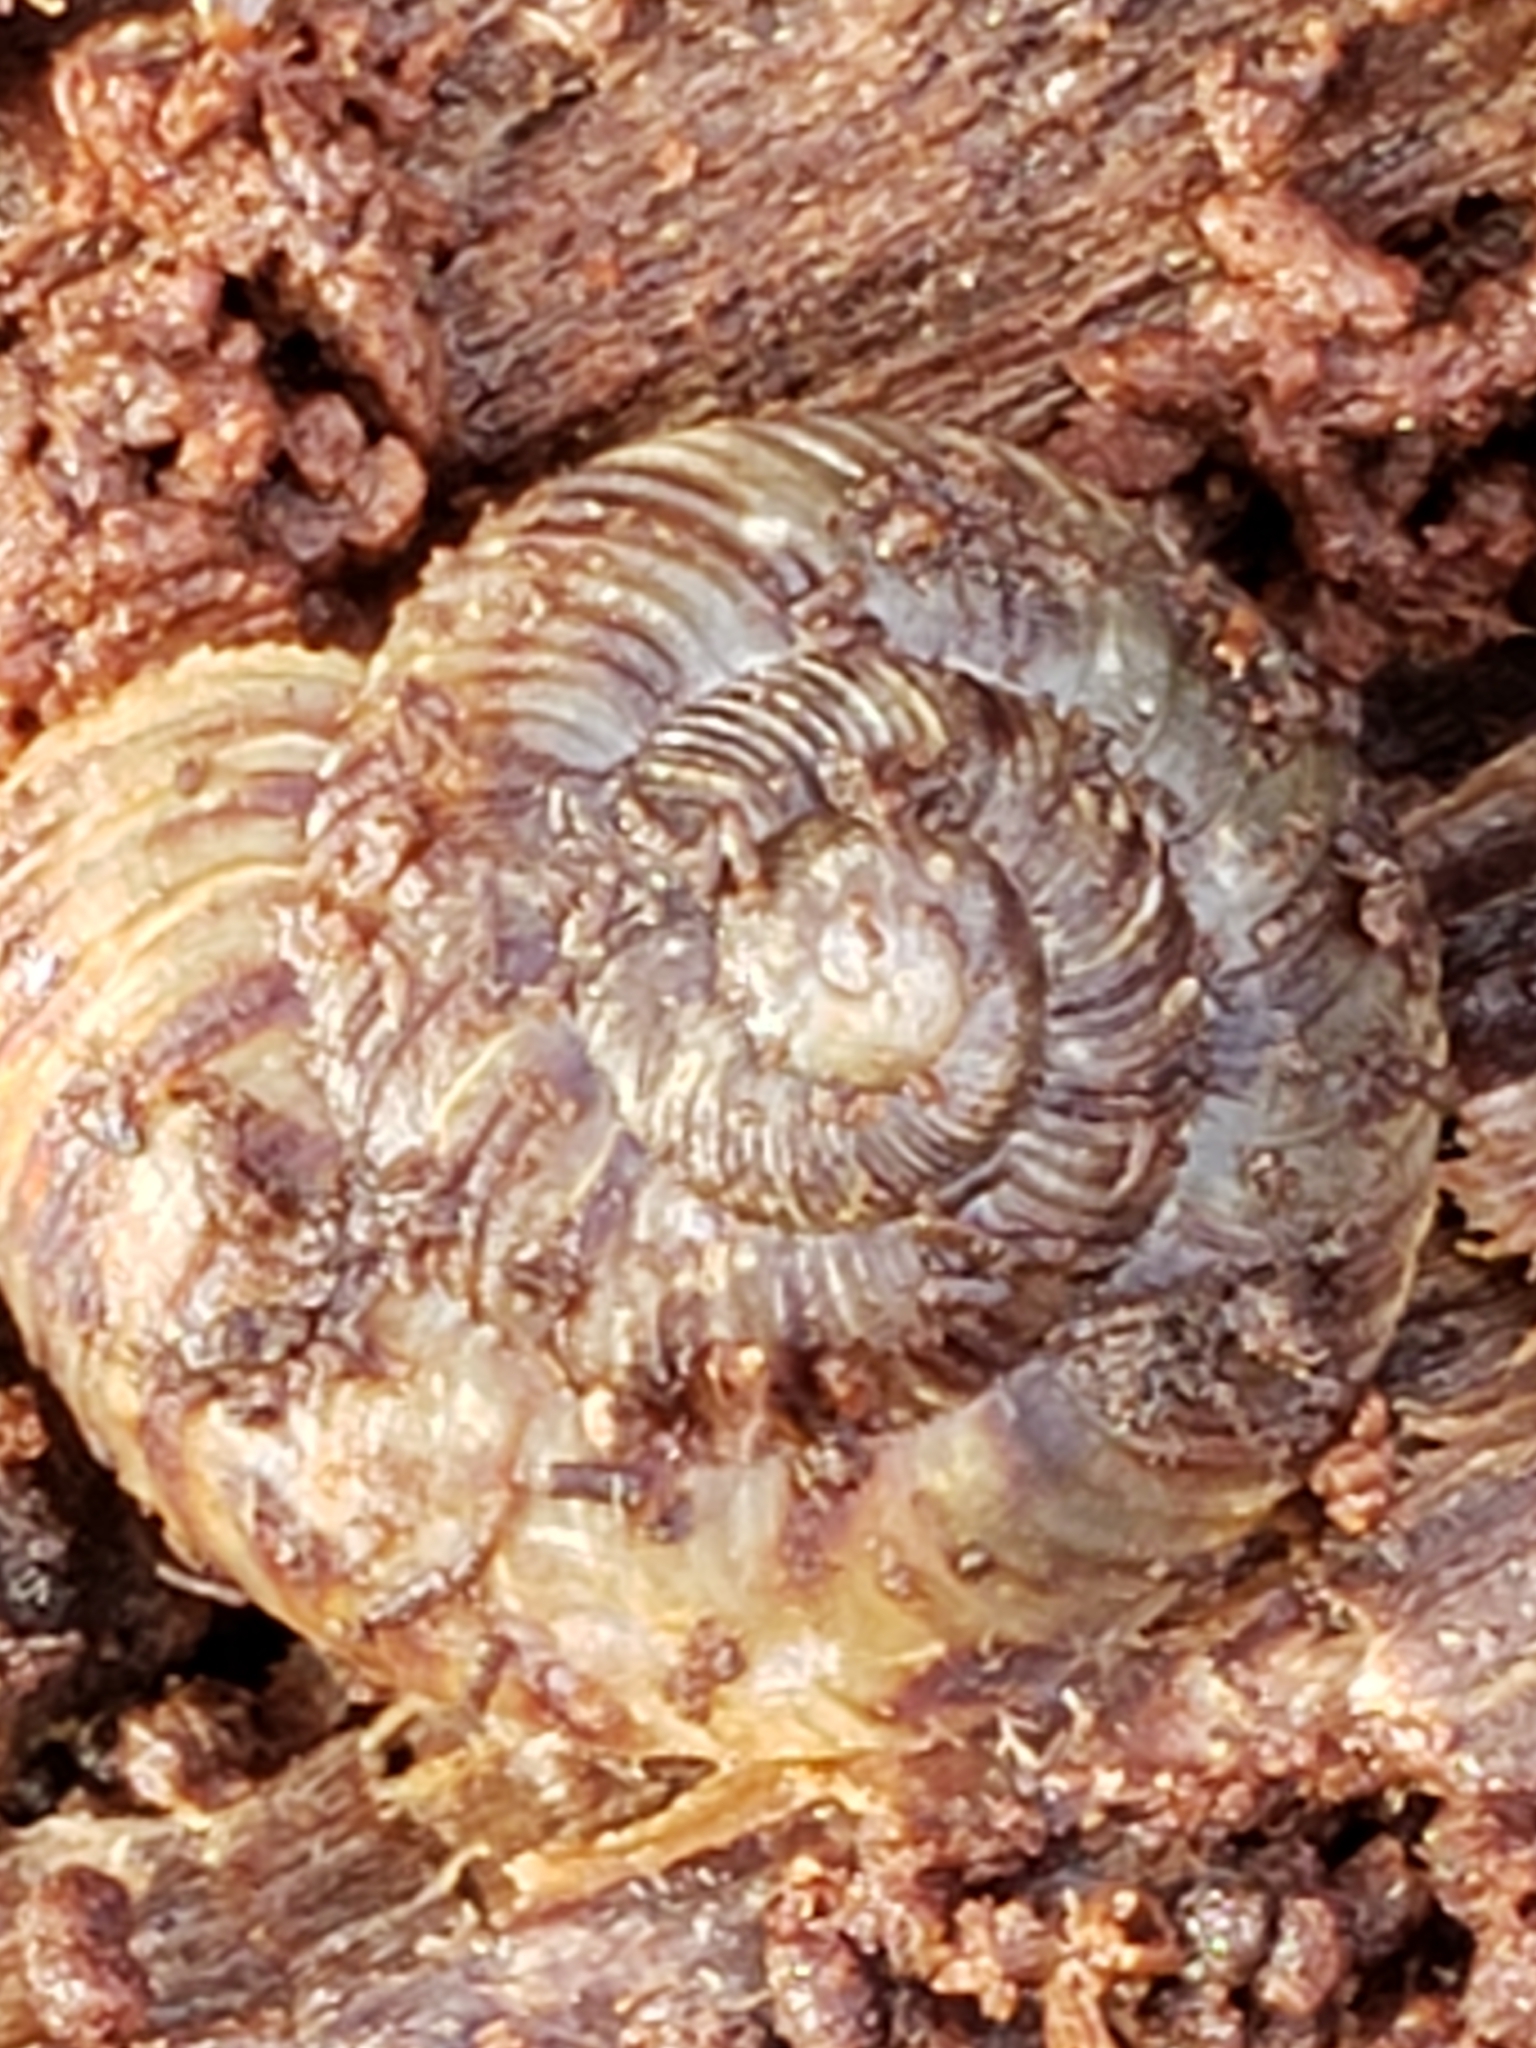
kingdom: Animalia
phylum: Mollusca
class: Gastropoda
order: Stylommatophora
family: Discidae
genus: Anguispira
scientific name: Anguispira alternata
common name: Flamed tigersnail
